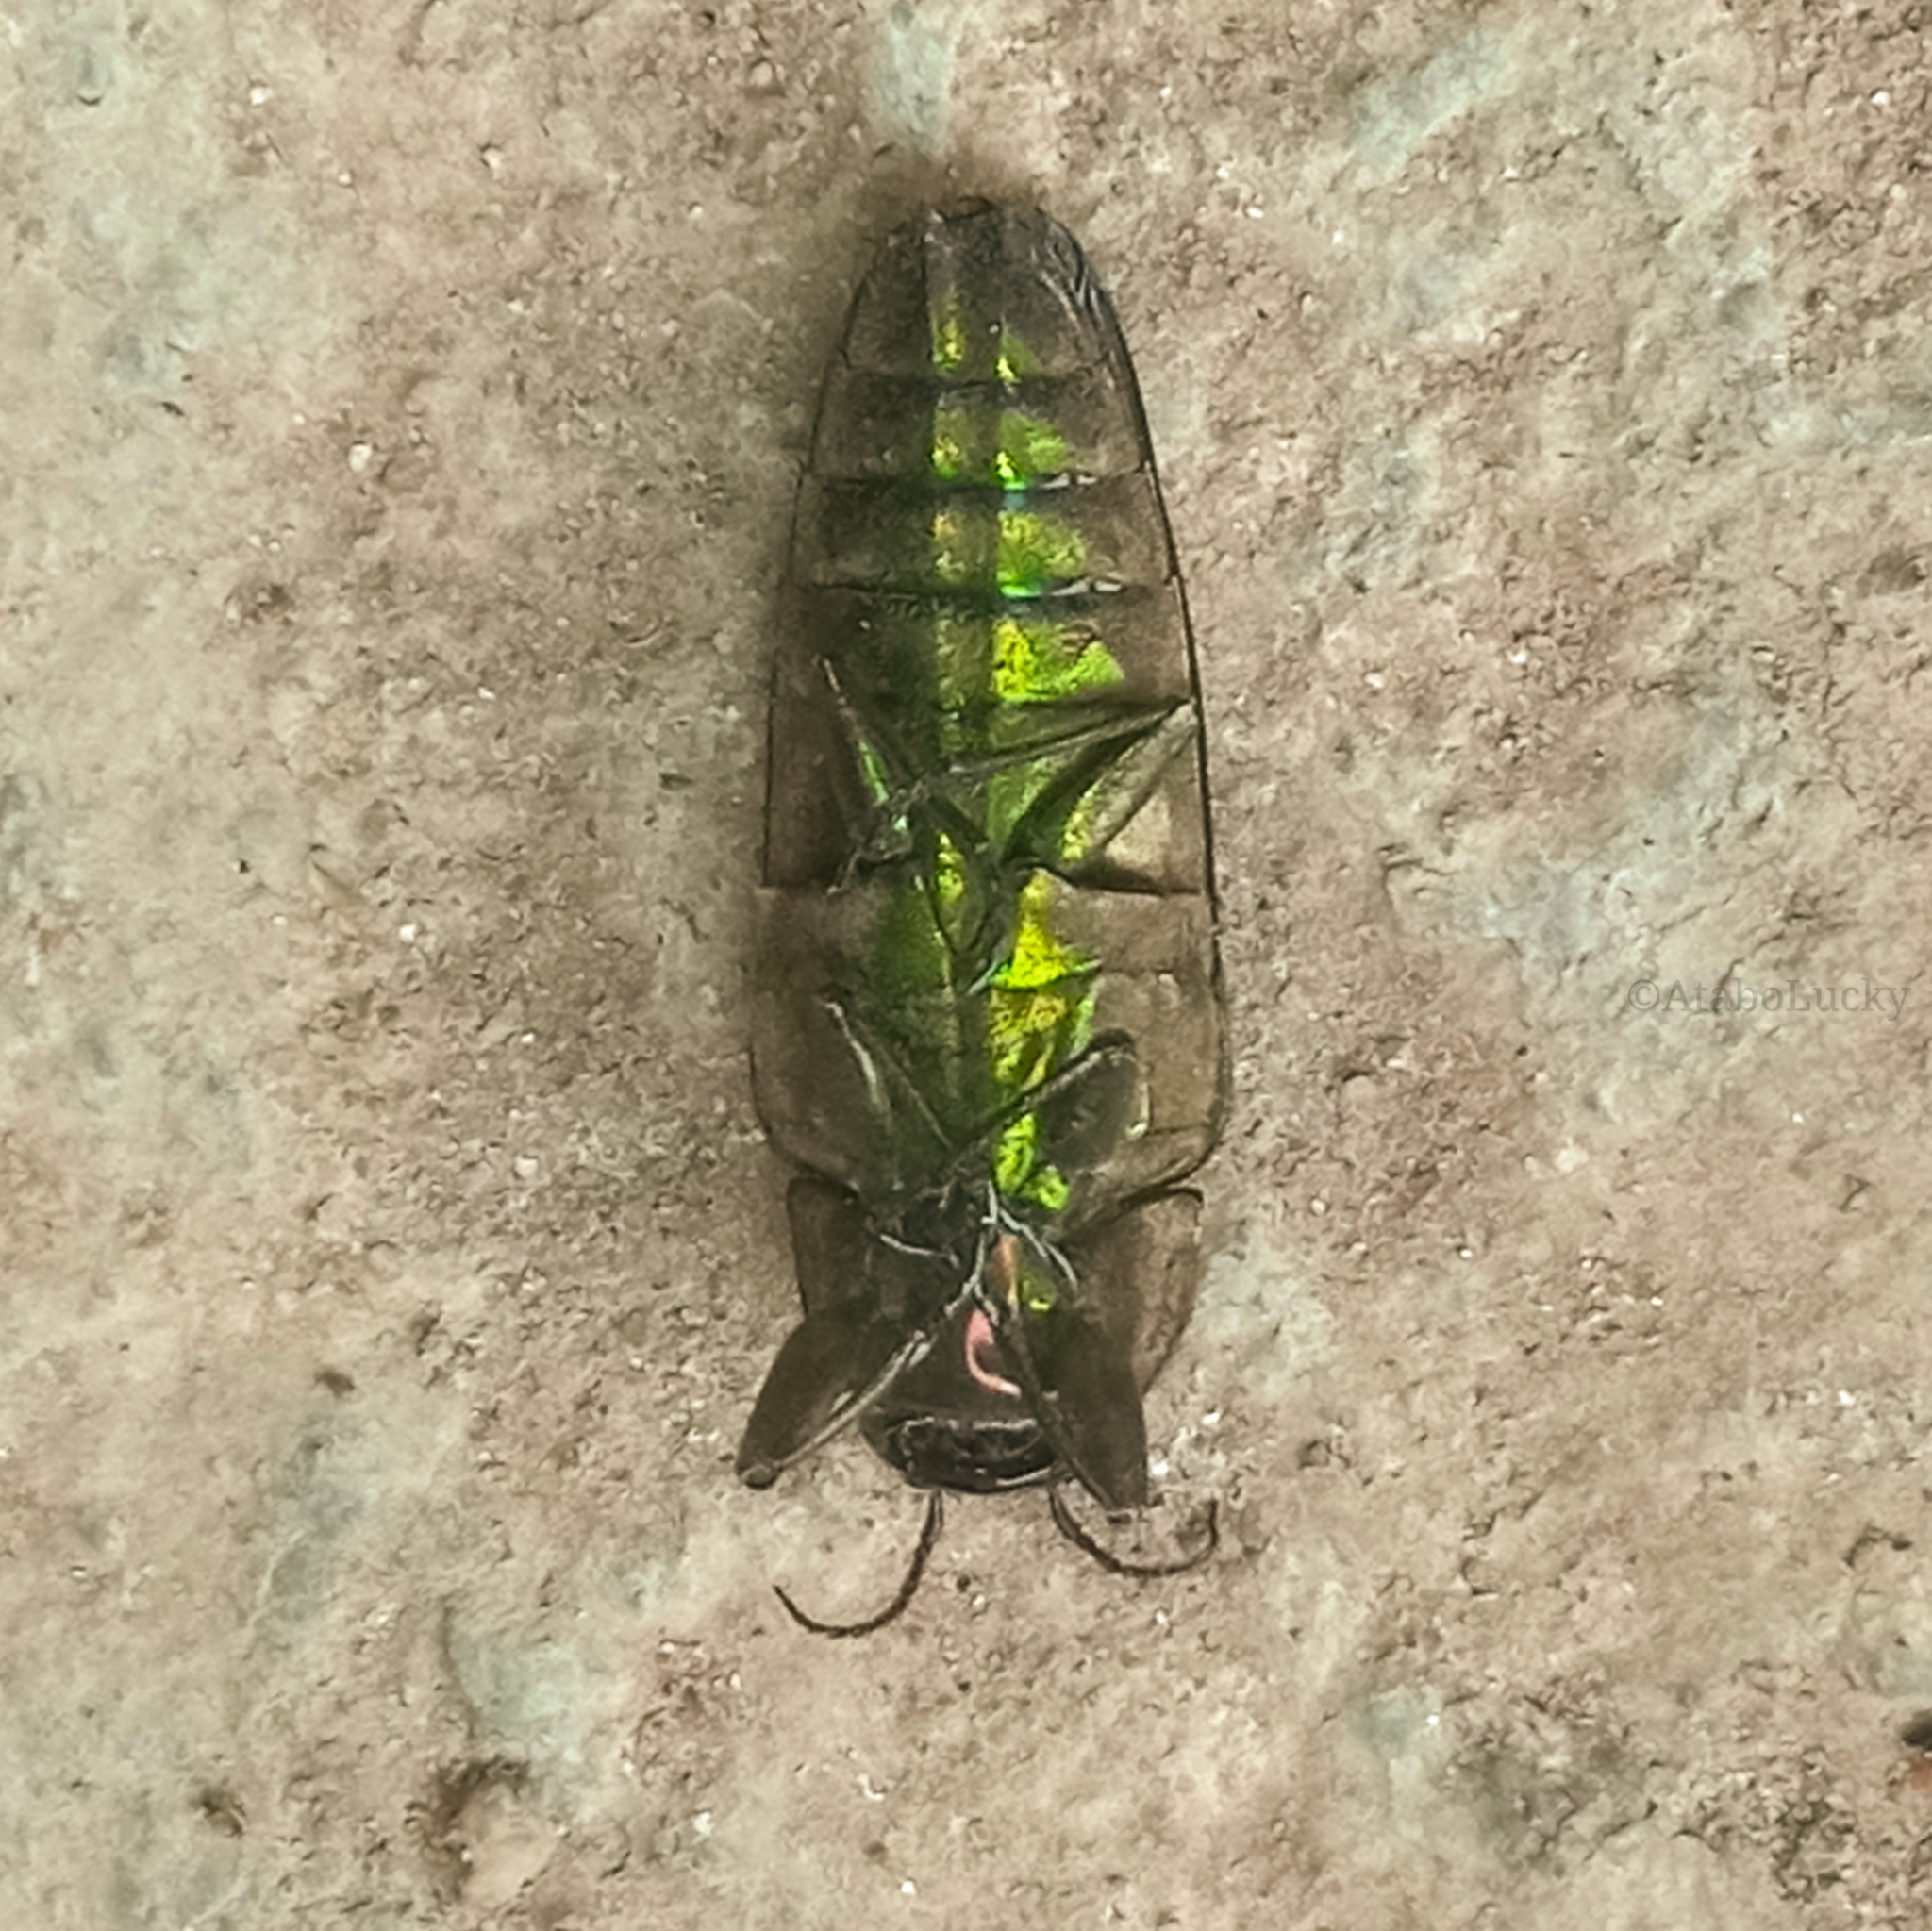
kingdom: Animalia
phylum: Arthropoda
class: Insecta
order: Coleoptera
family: Buprestidae
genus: Belionota
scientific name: Belionota prasina
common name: Jewel beetle
